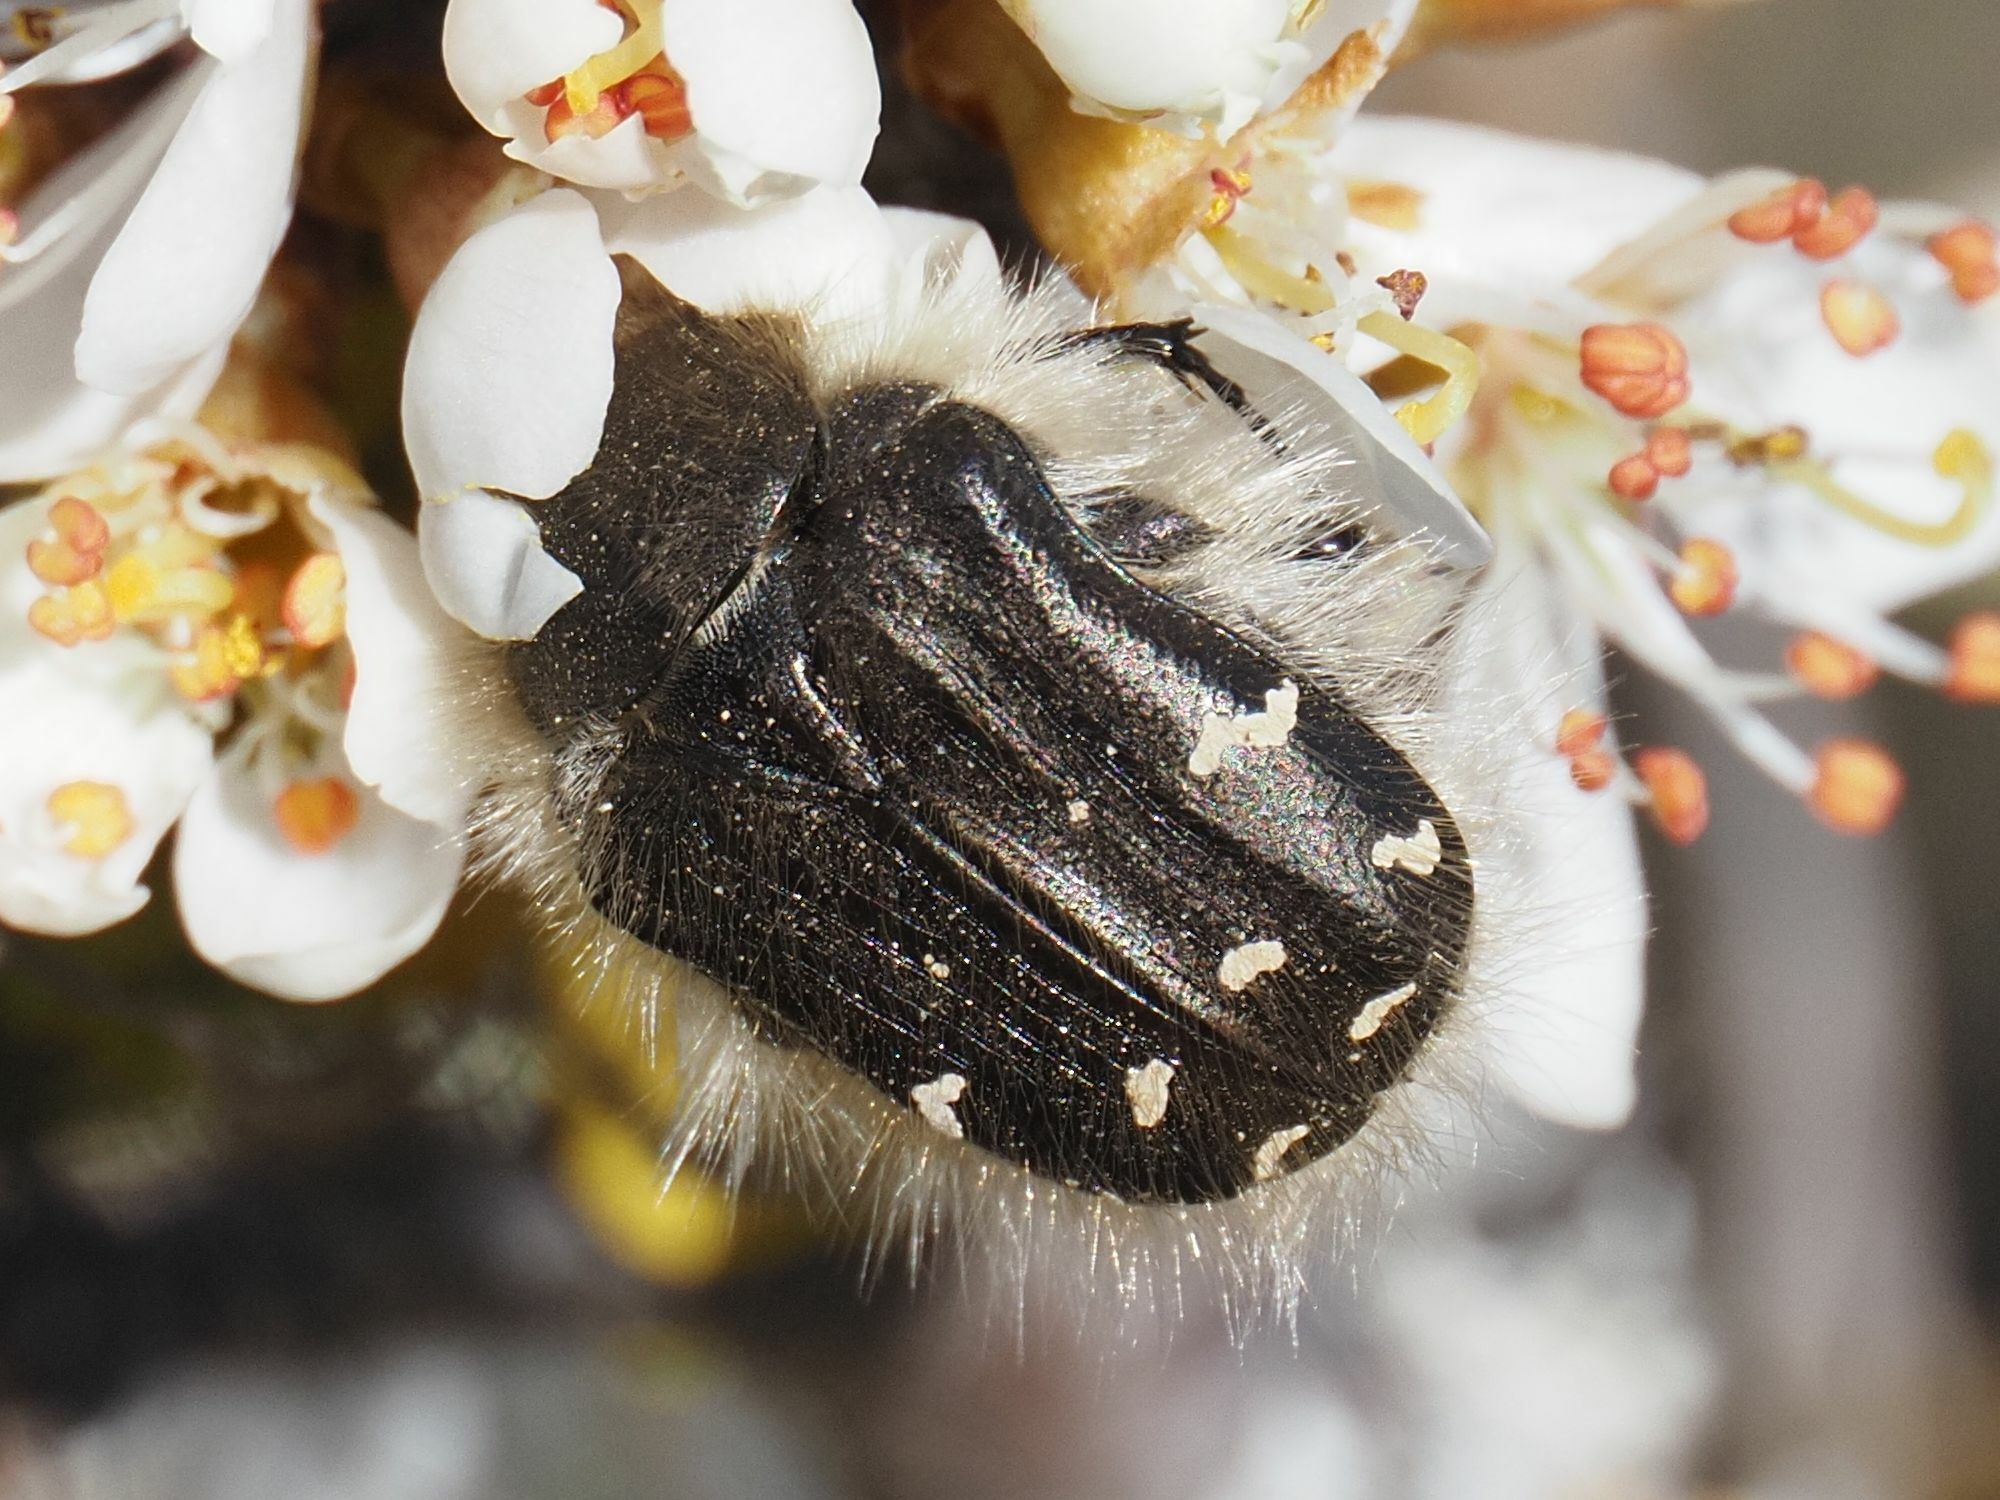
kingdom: Animalia
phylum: Arthropoda
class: Insecta
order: Coleoptera
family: Scarabaeidae
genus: Tropinota
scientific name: Tropinota hirta
